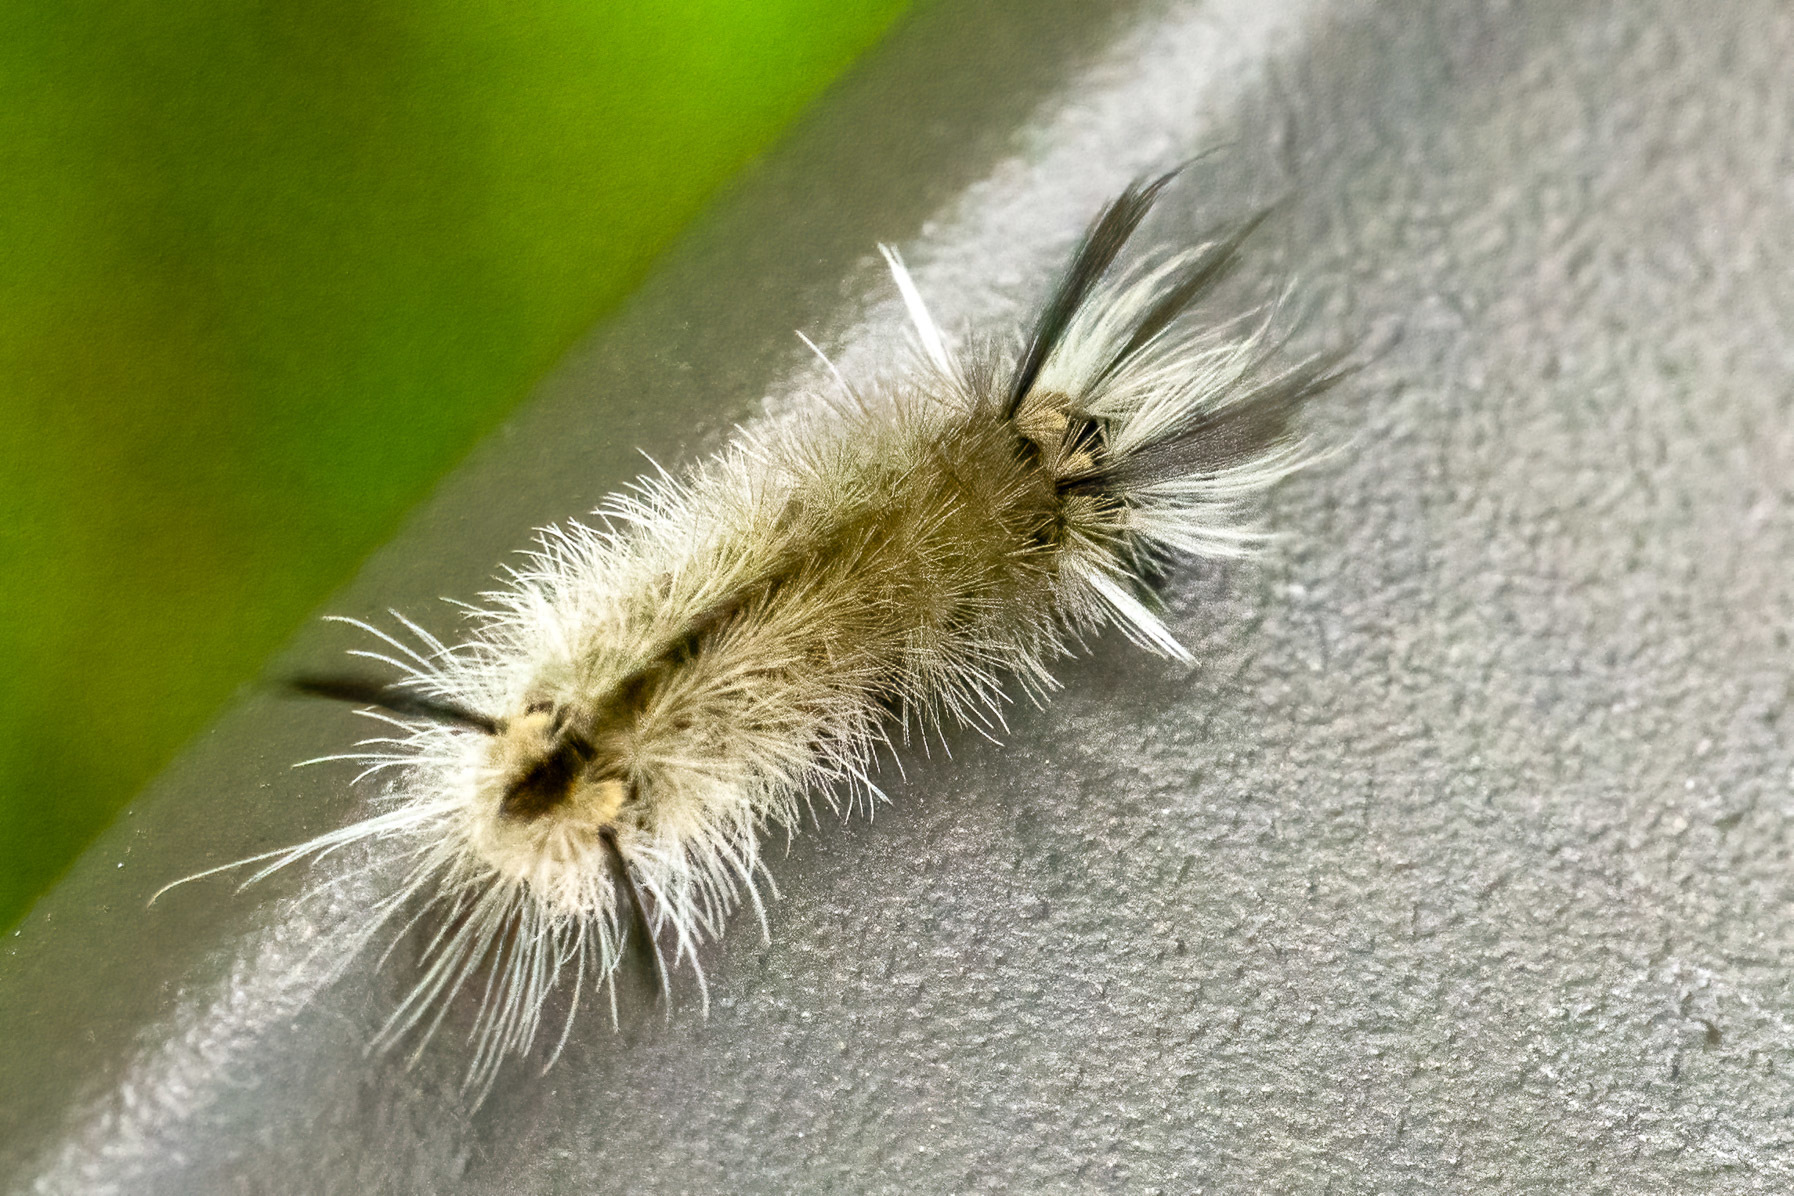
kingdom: Animalia
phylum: Arthropoda
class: Insecta
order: Lepidoptera
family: Erebidae
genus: Halysidota
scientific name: Halysidota tessellaris
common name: Banded tussock moth
